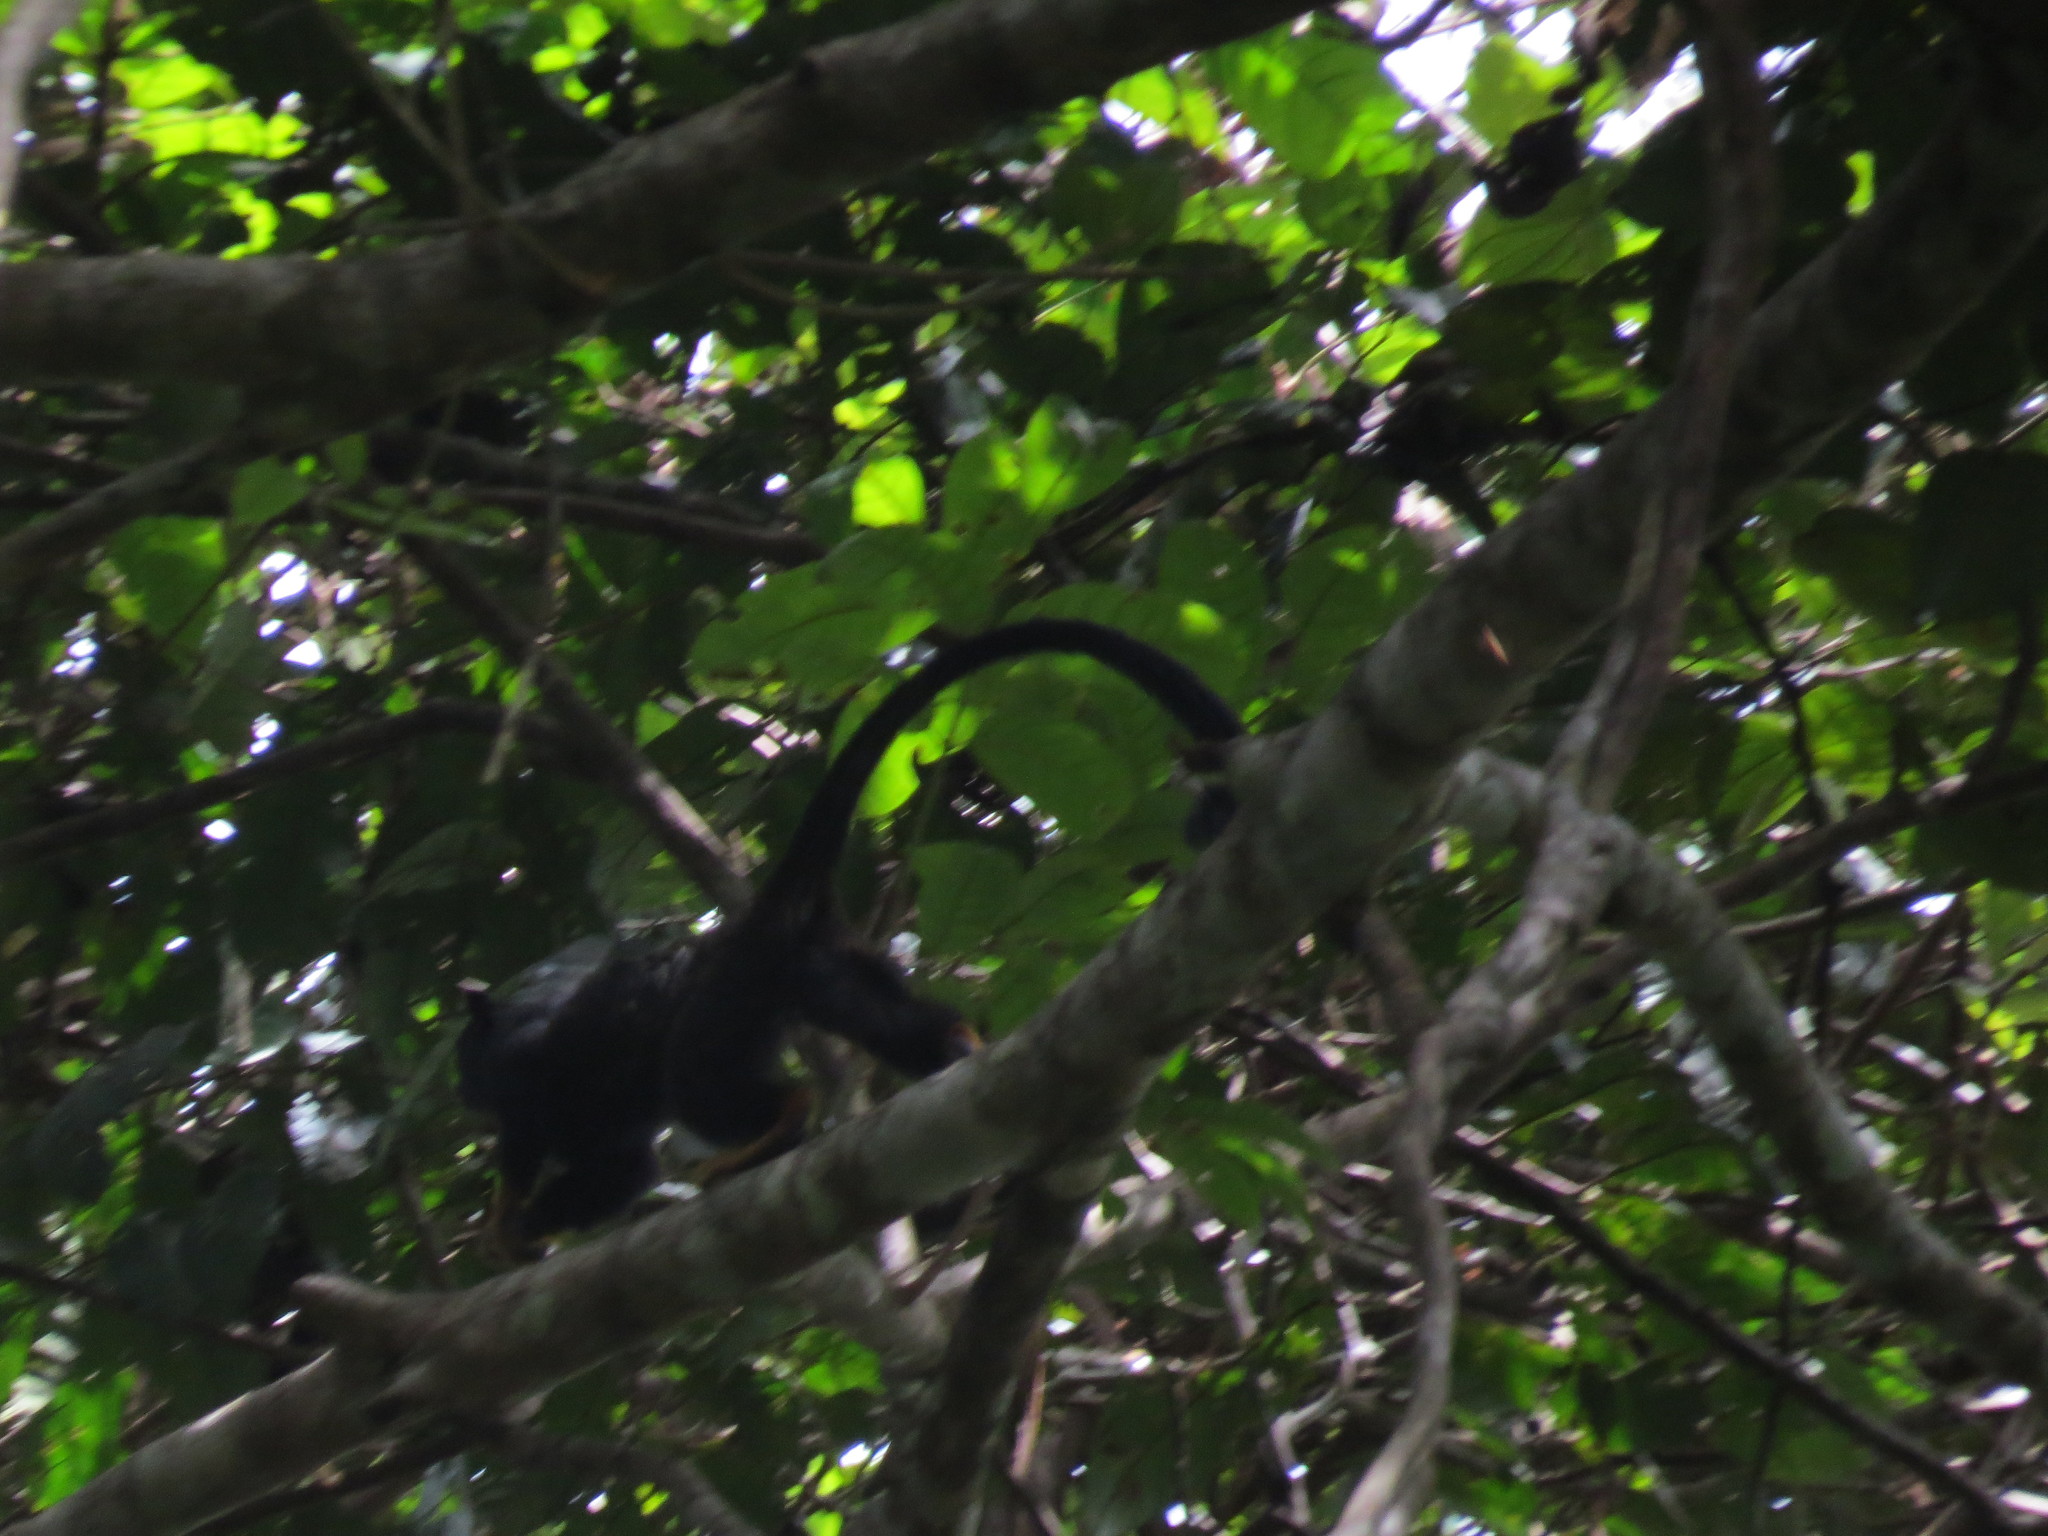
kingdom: Animalia
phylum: Chordata
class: Mammalia
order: Primates
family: Callitrichidae
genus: Saguinus
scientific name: Saguinus midas
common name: Red-handed tamarin
